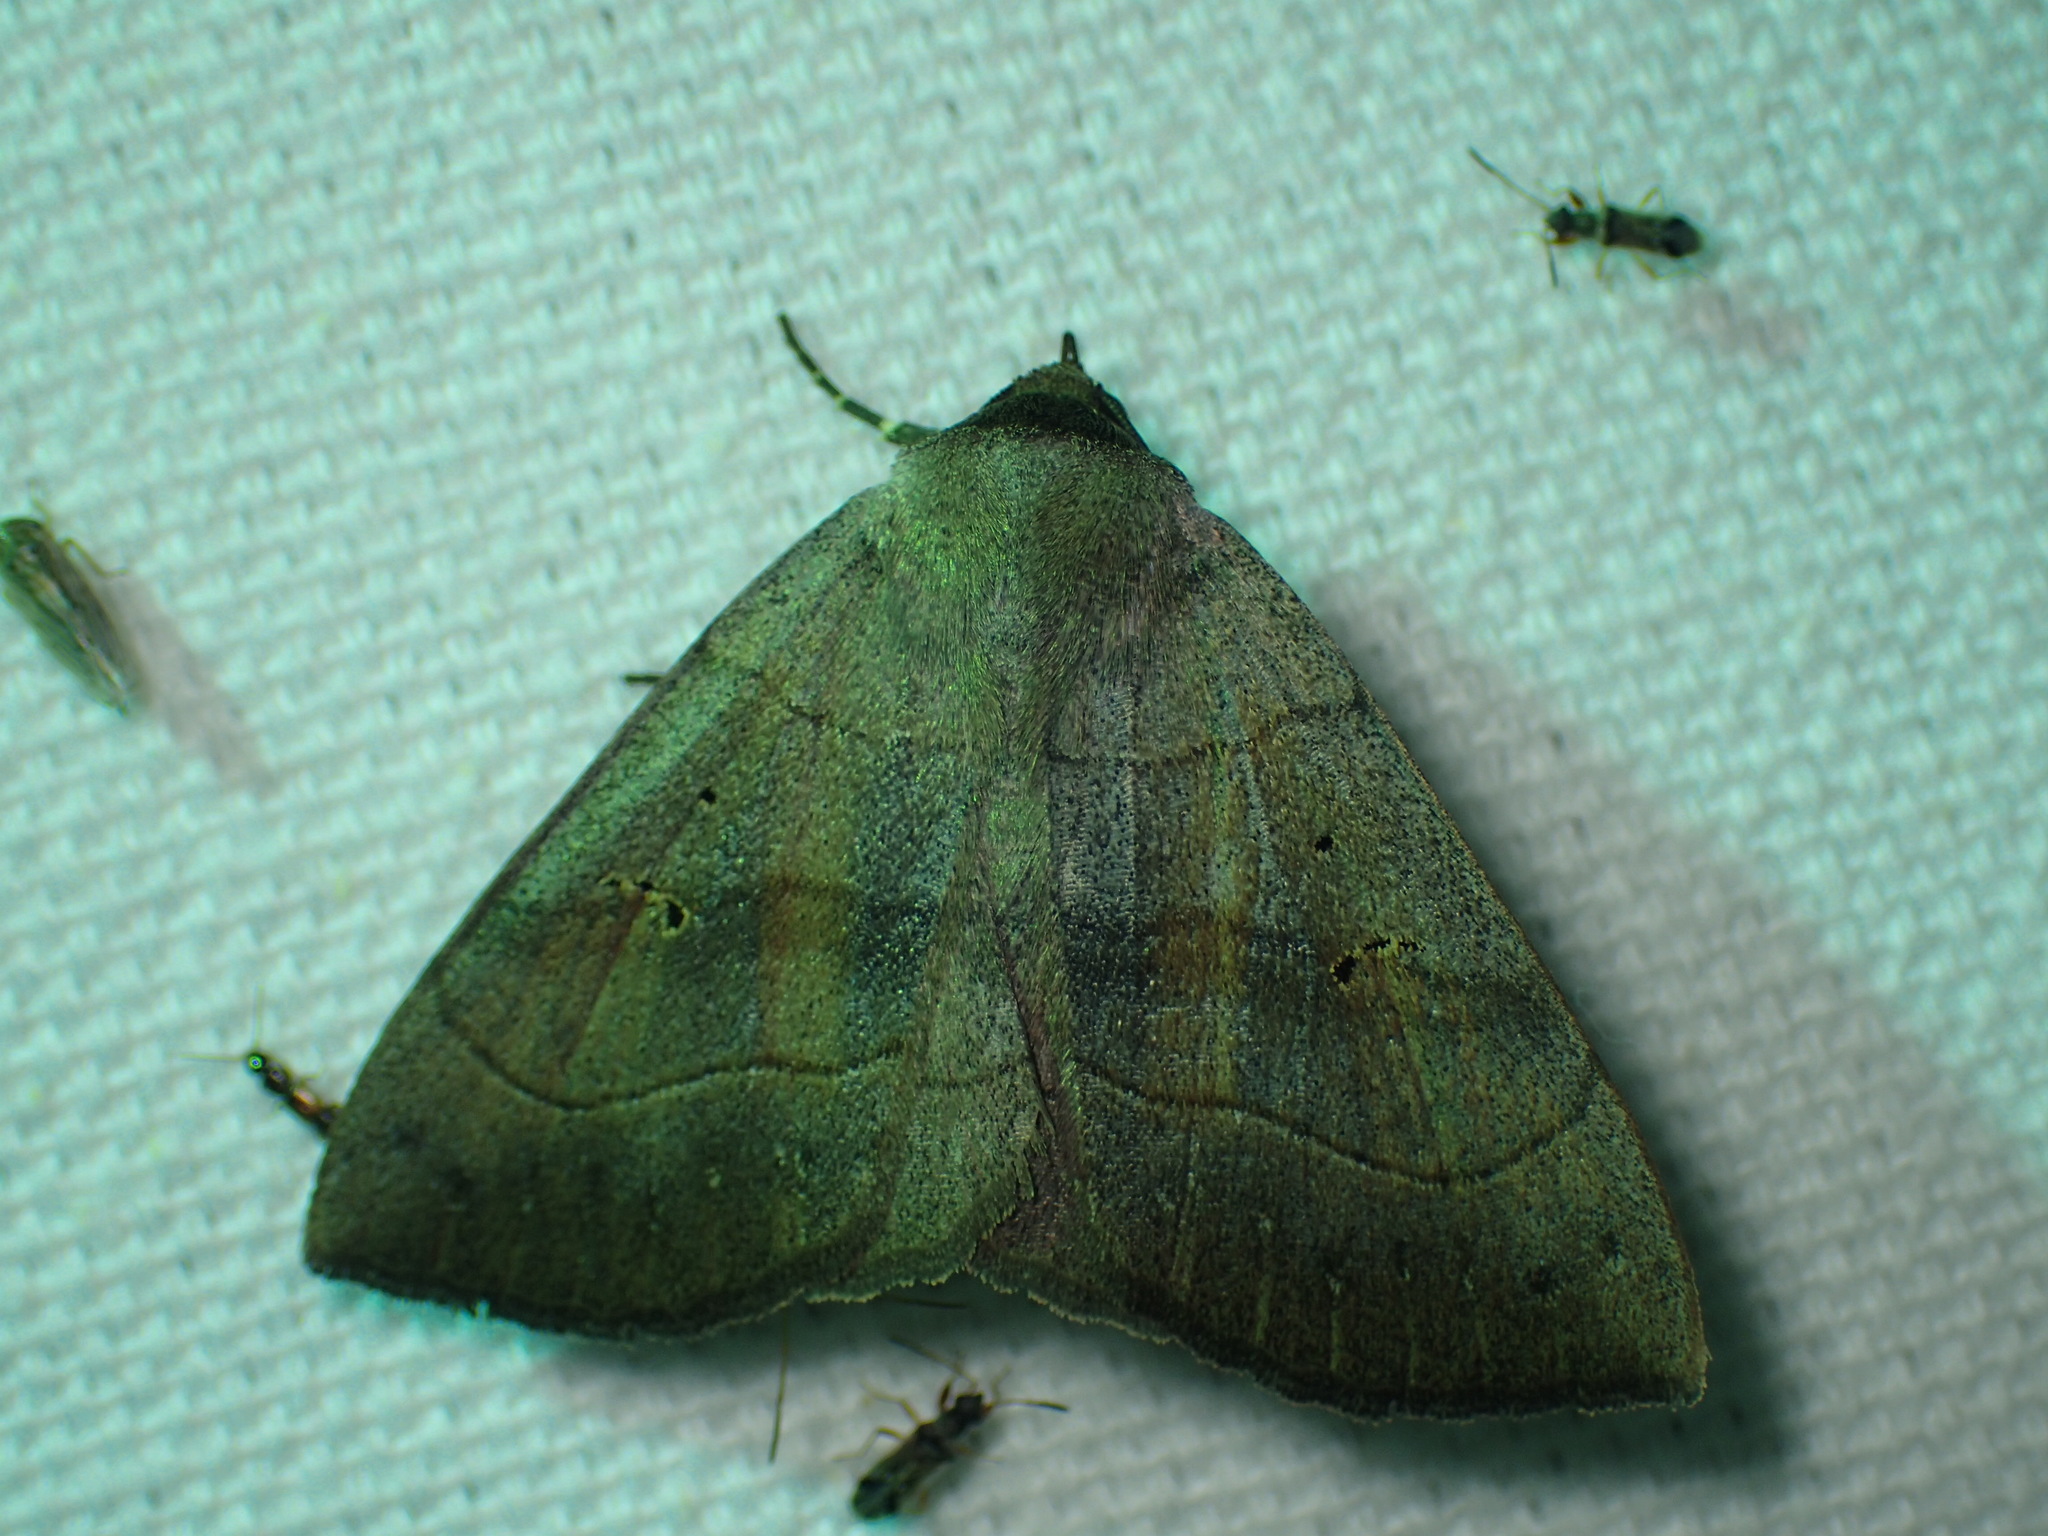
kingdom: Animalia
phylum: Arthropoda
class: Insecta
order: Lepidoptera
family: Erebidae
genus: Panopoda
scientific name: Panopoda carneicosta
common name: Brown panopoda moth
